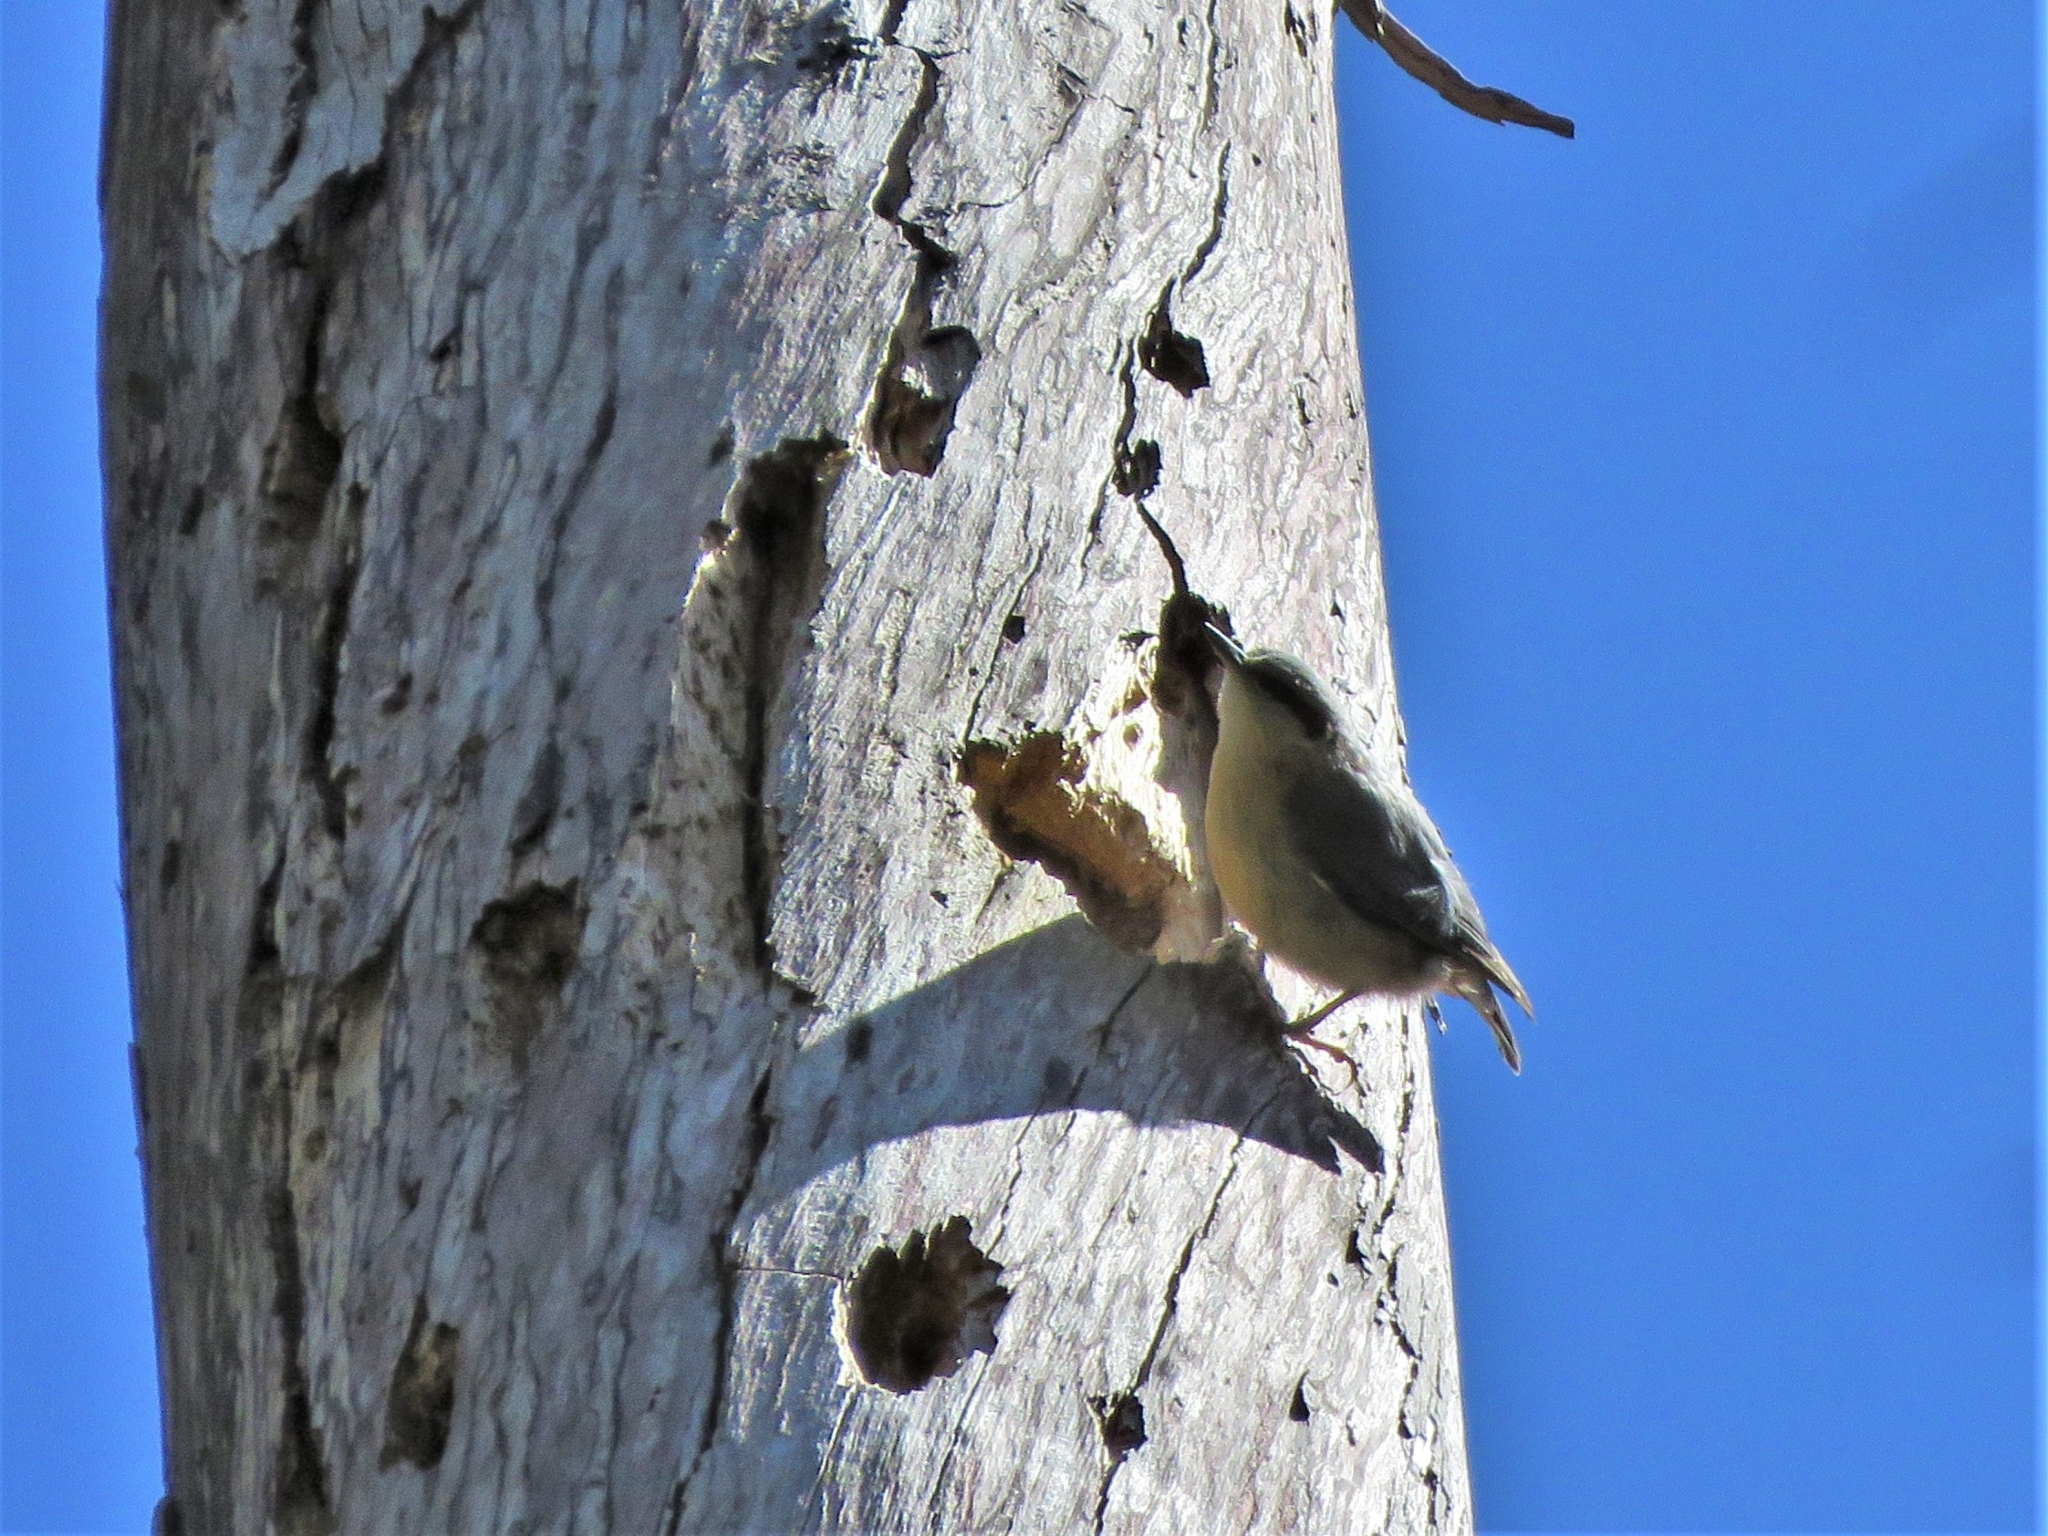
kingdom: Animalia
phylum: Chordata
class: Aves
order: Passeriformes
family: Sittidae
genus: Sitta
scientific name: Sitta europaea
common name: Eurasian nuthatch
